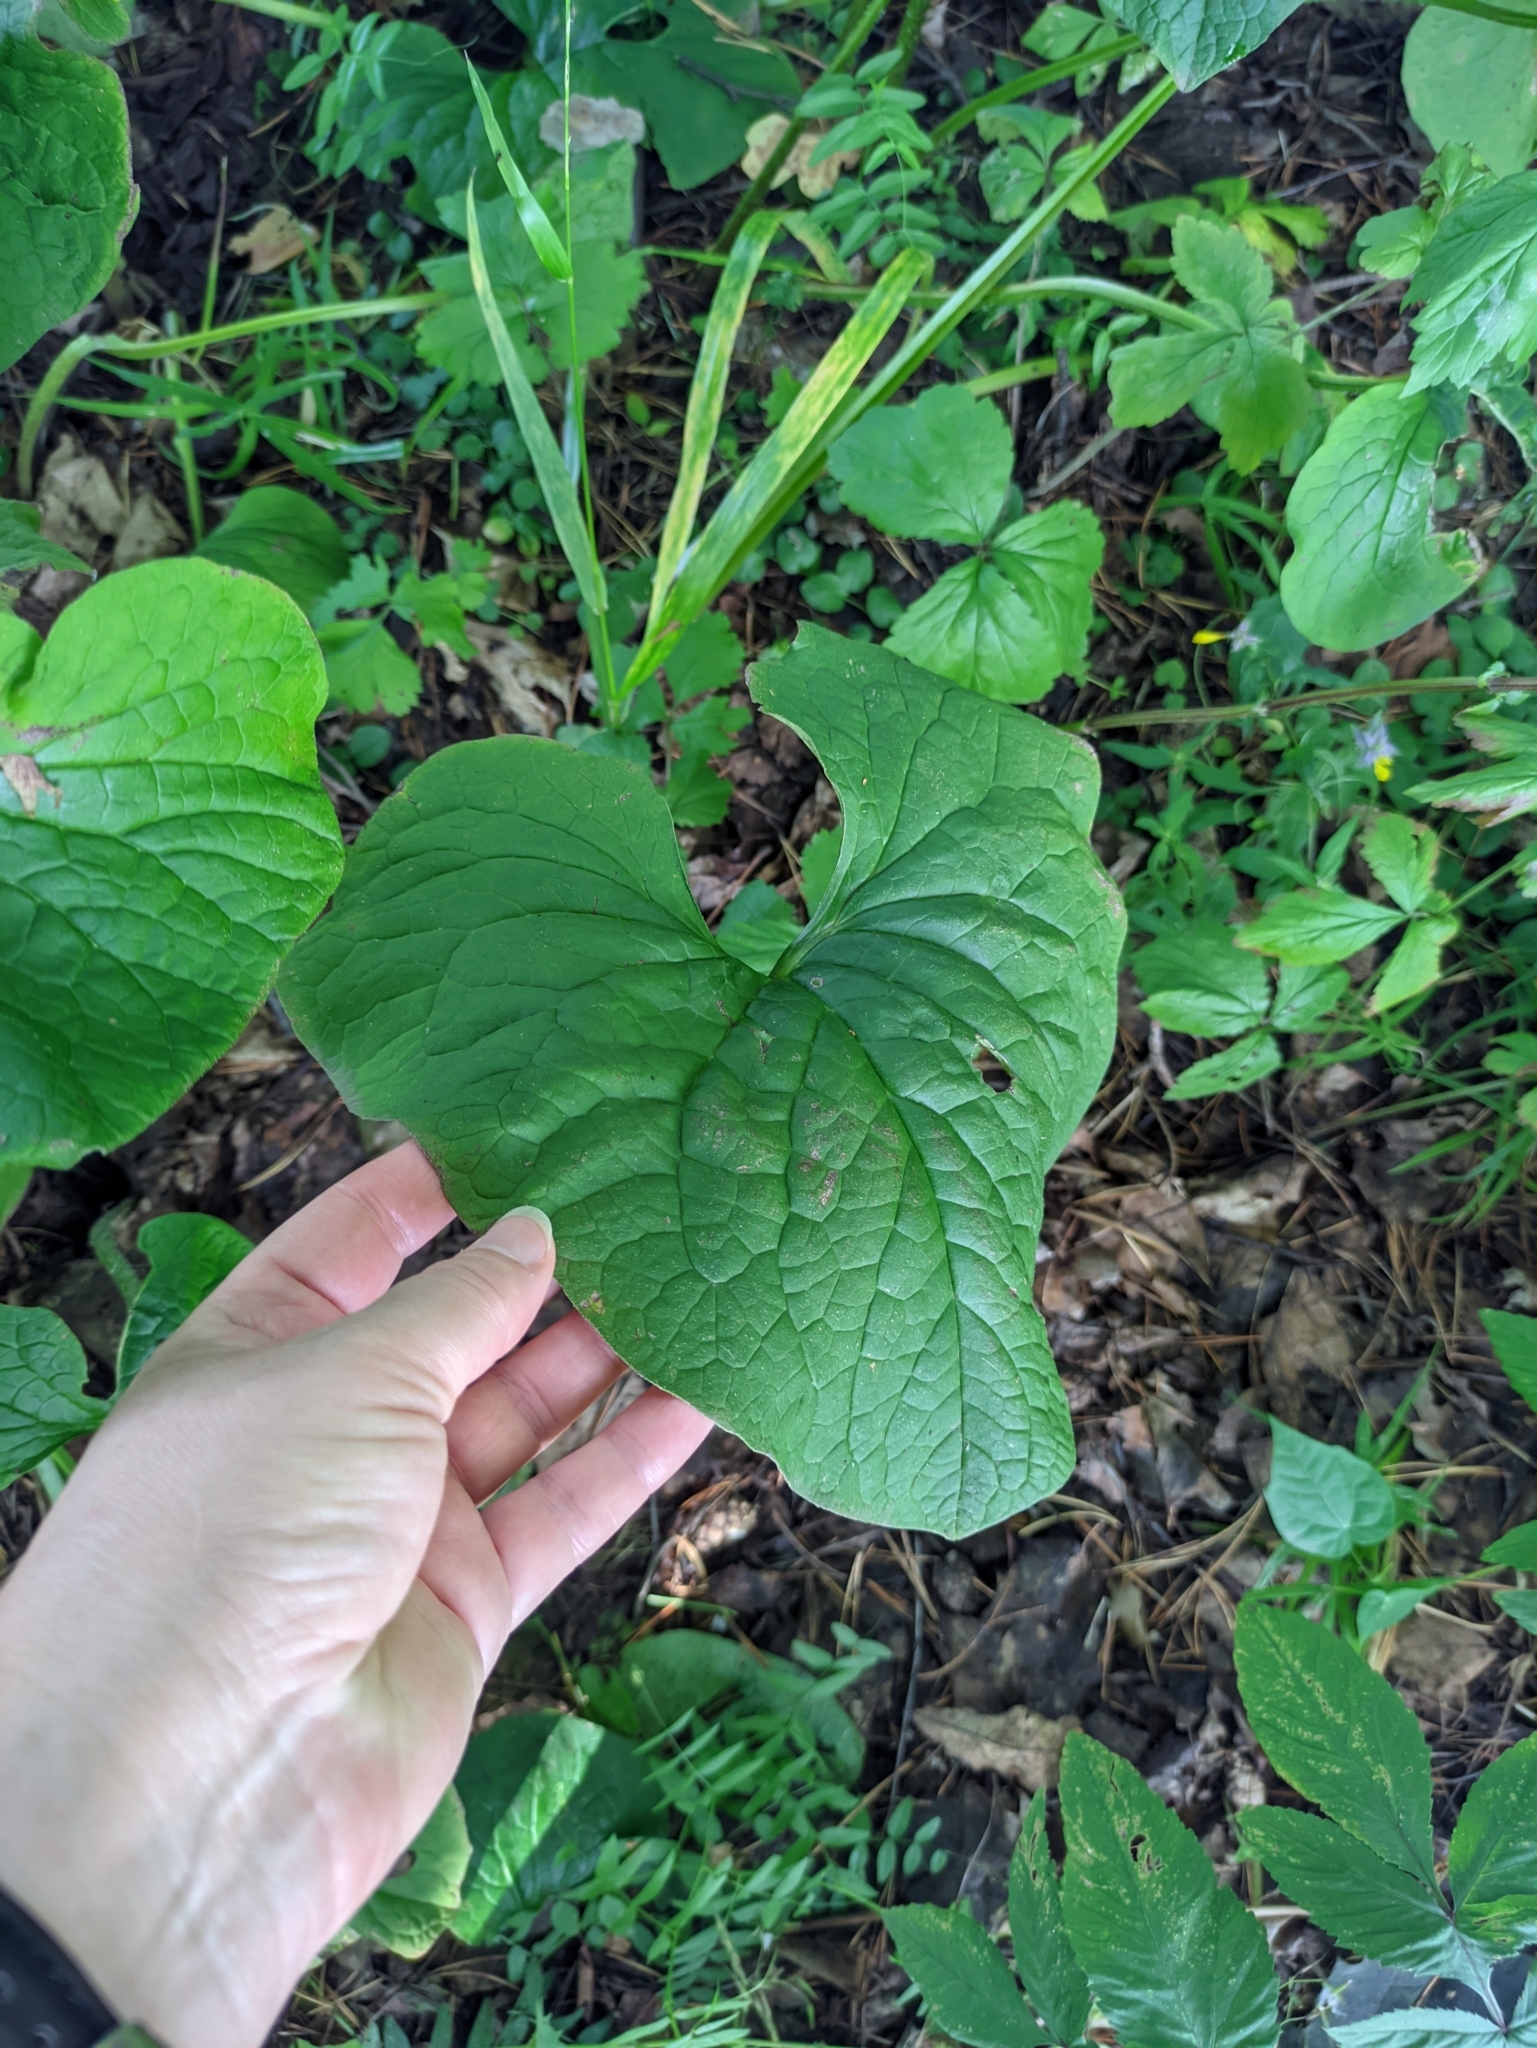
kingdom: Plantae
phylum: Tracheophyta
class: Magnoliopsida
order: Boraginales
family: Boraginaceae
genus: Brunnera
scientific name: Brunnera sibirica
